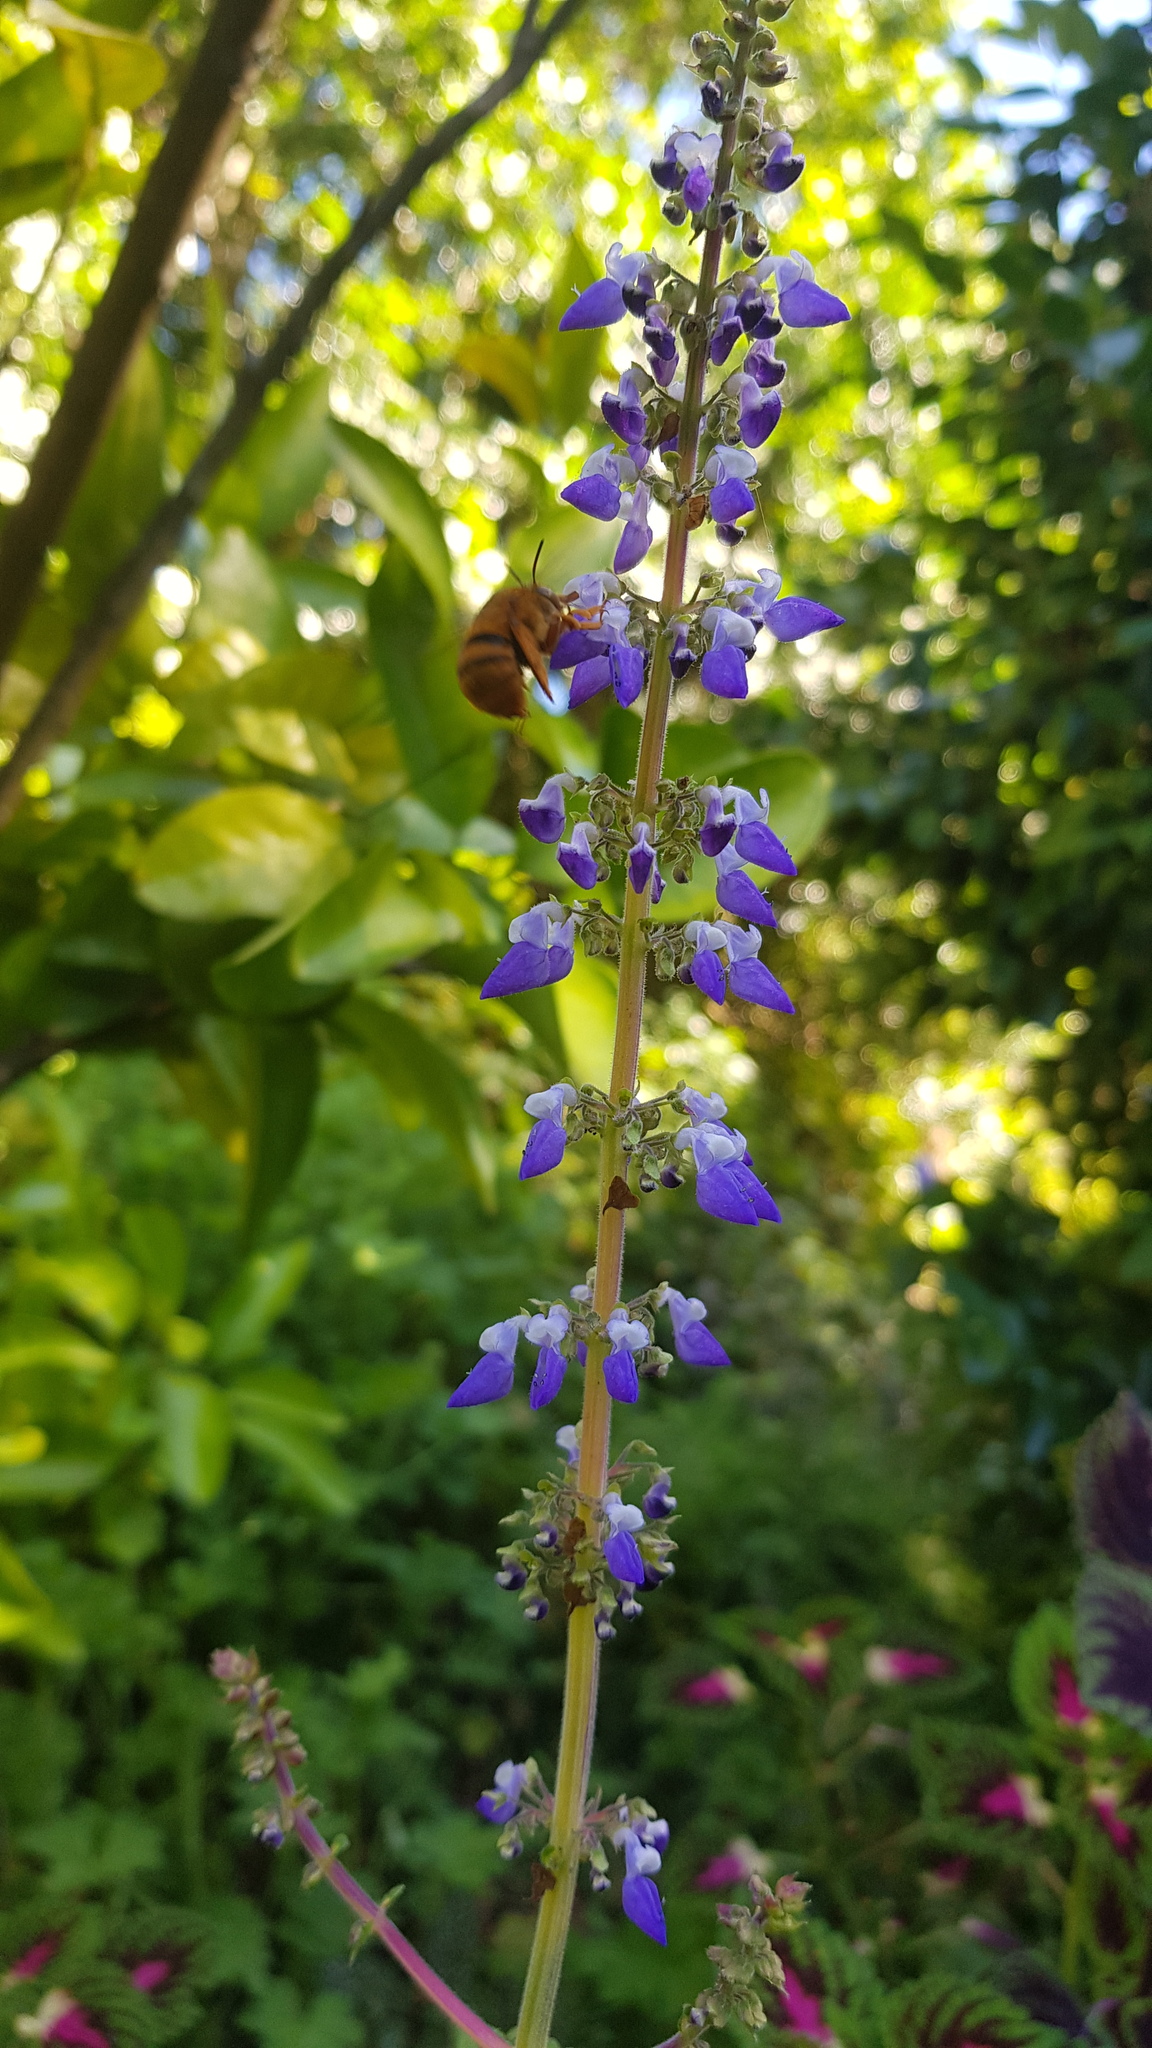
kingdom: Animalia
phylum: Arthropoda
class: Insecta
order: Hymenoptera
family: Apidae
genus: Amegilla
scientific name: Amegilla bombiformis
